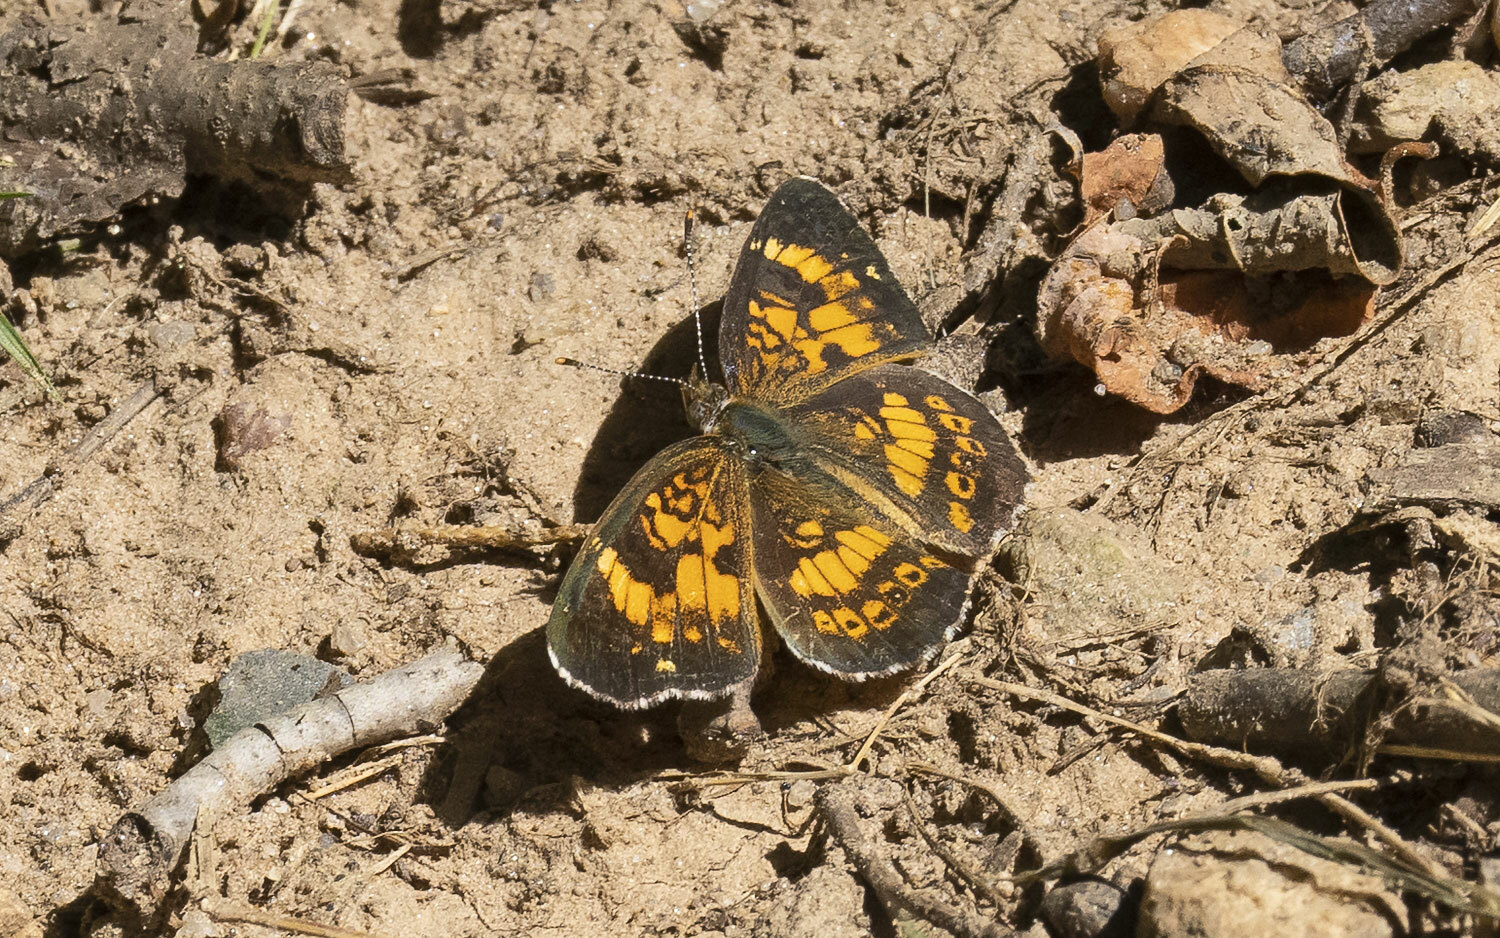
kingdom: Animalia
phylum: Arthropoda
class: Insecta
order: Lepidoptera
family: Nymphalidae
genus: Chlosyne
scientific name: Chlosyne nycteis
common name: Silvery checkerspot
